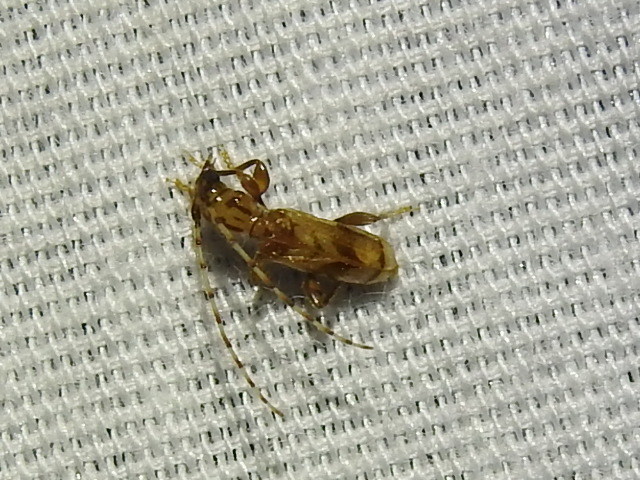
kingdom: Animalia
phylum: Arthropoda
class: Insecta
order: Coleoptera
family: Cerambycidae
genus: Obrium
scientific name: Obrium maculatum
